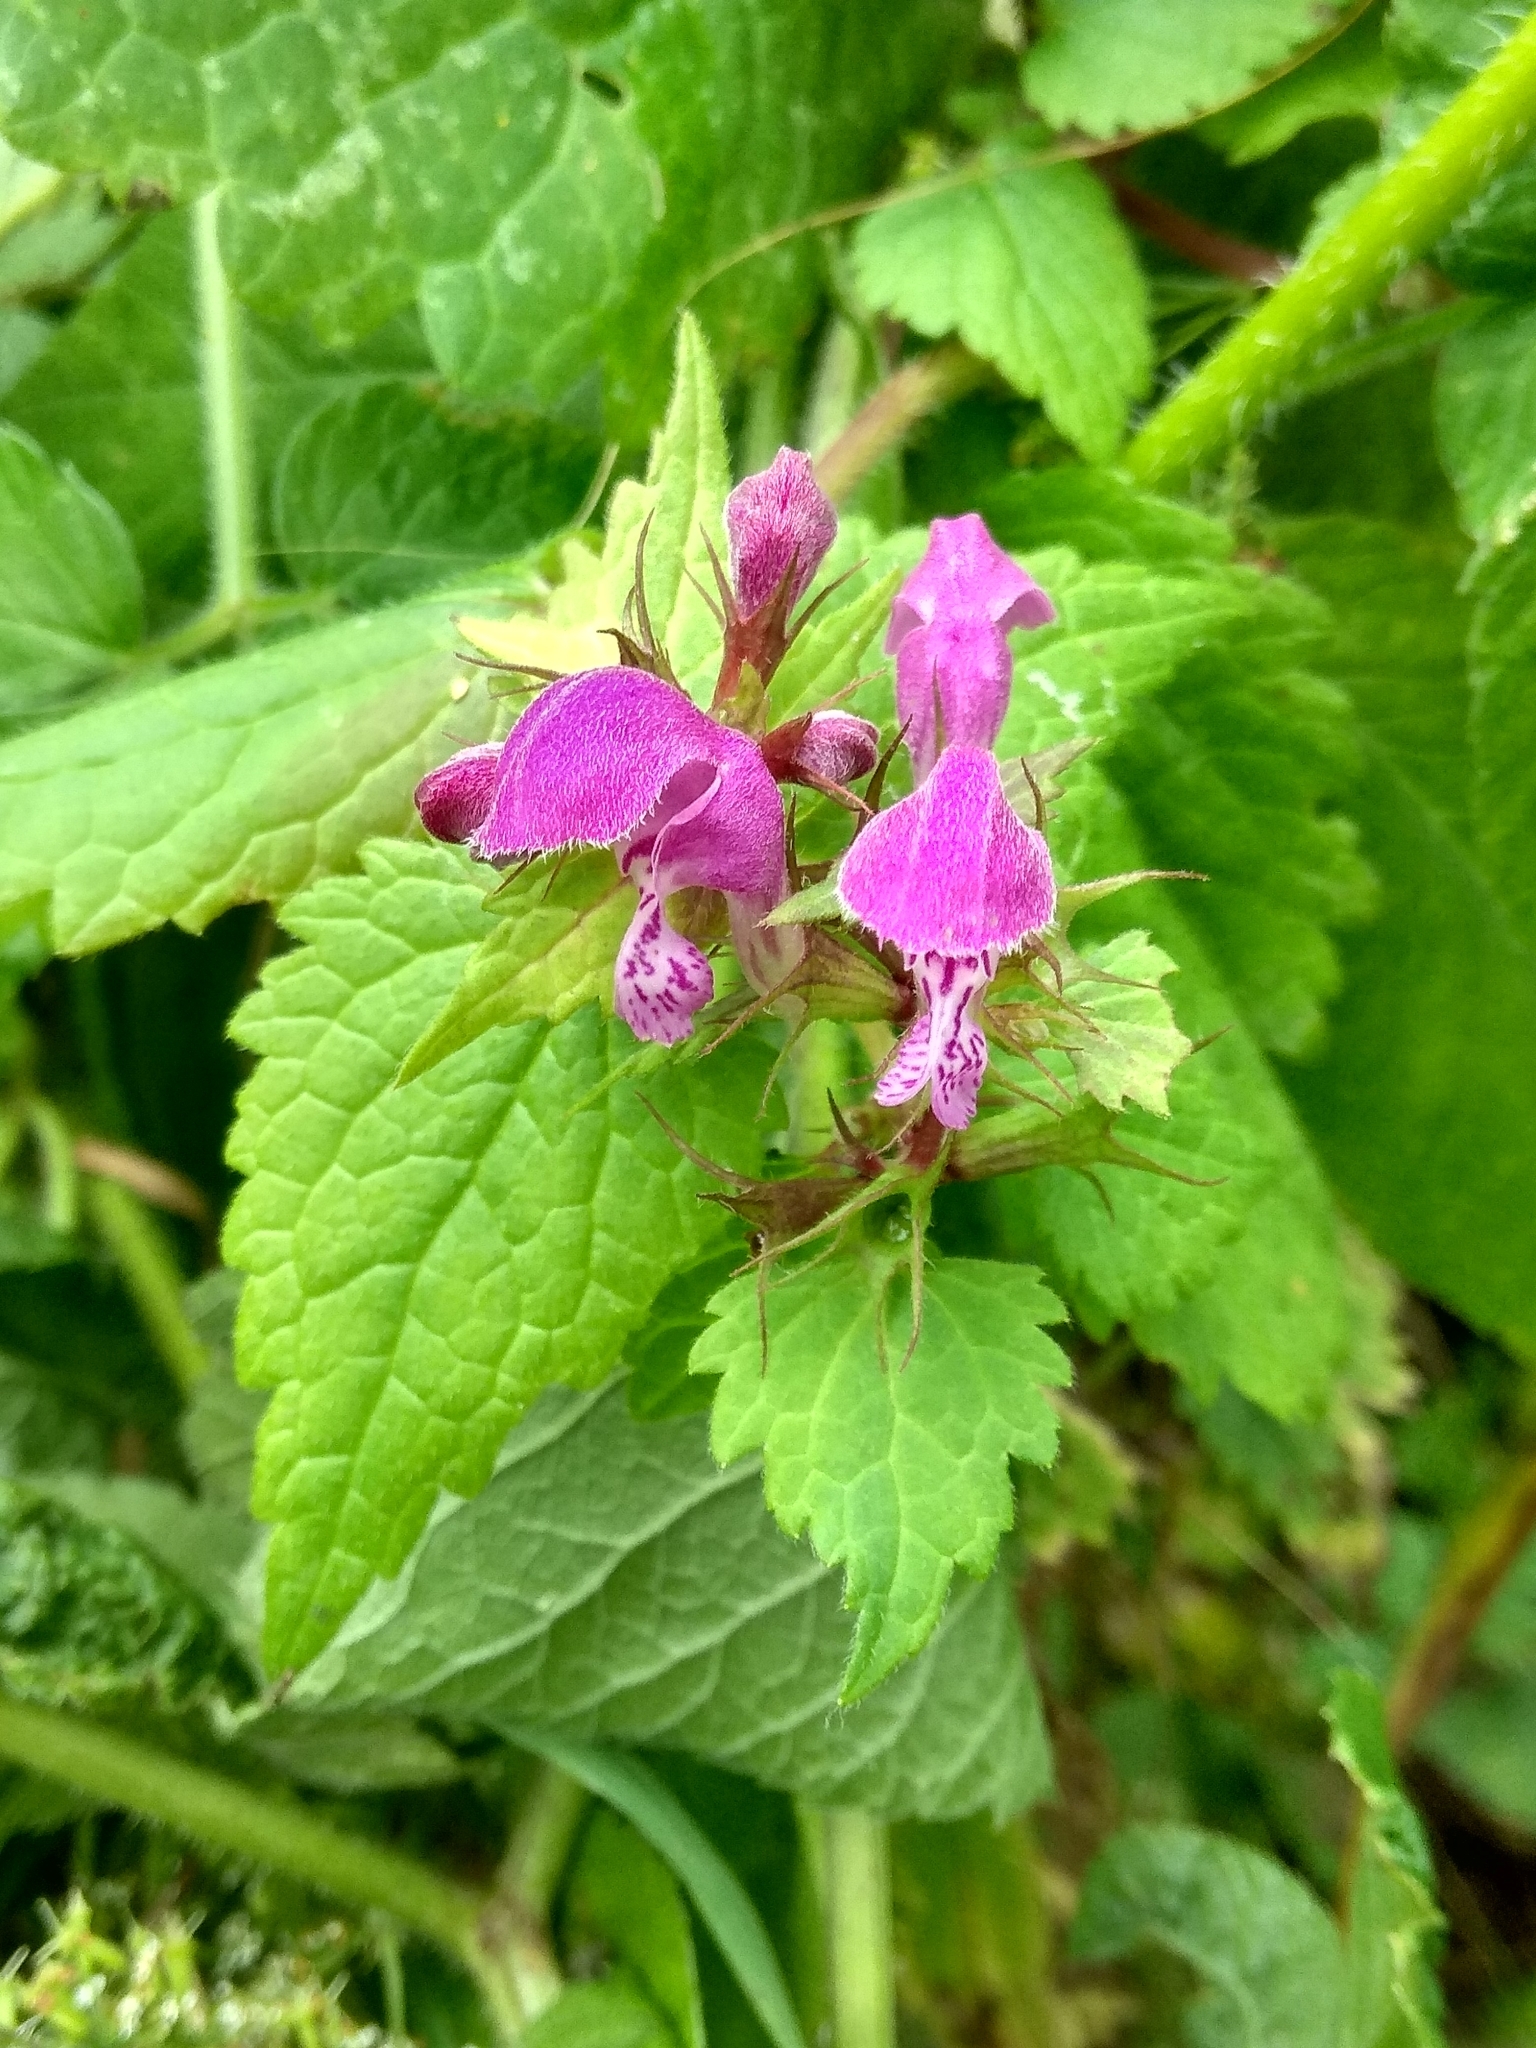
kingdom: Plantae
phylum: Tracheophyta
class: Magnoliopsida
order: Lamiales
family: Lamiaceae
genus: Lamium
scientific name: Lamium maculatum
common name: Spotted dead-nettle
